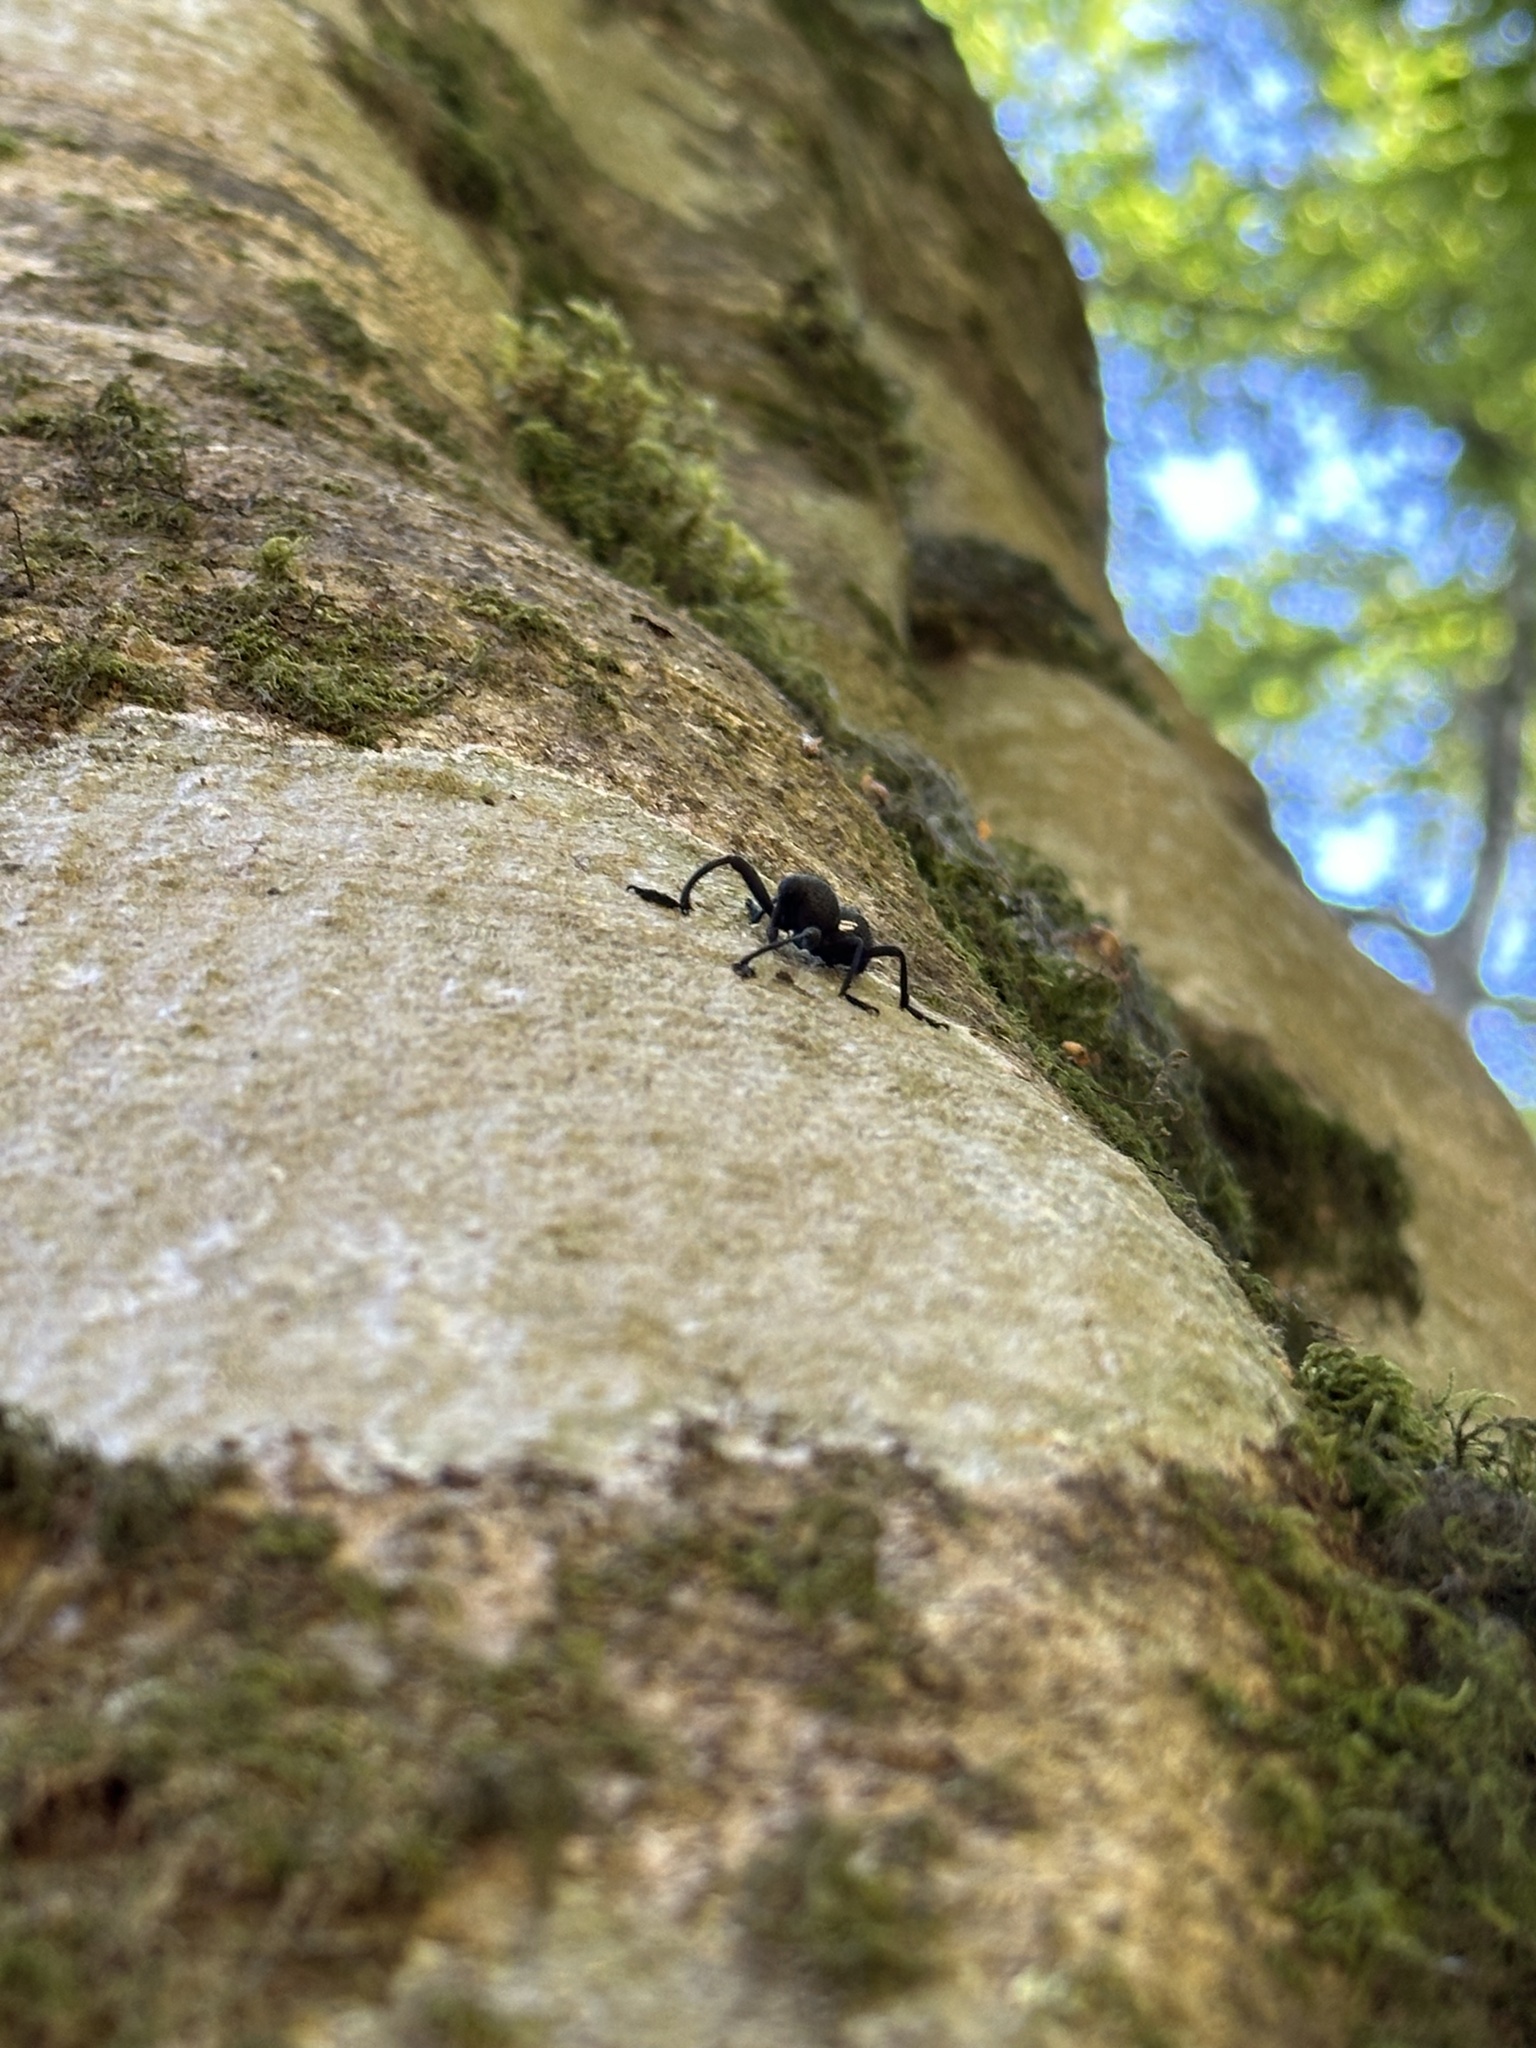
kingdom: Animalia
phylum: Arthropoda
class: Insecta
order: Coleoptera
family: Curculionidae
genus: Rhyephenes
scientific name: Rhyephenes humeralis
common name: Araè±ita chilena del pino
